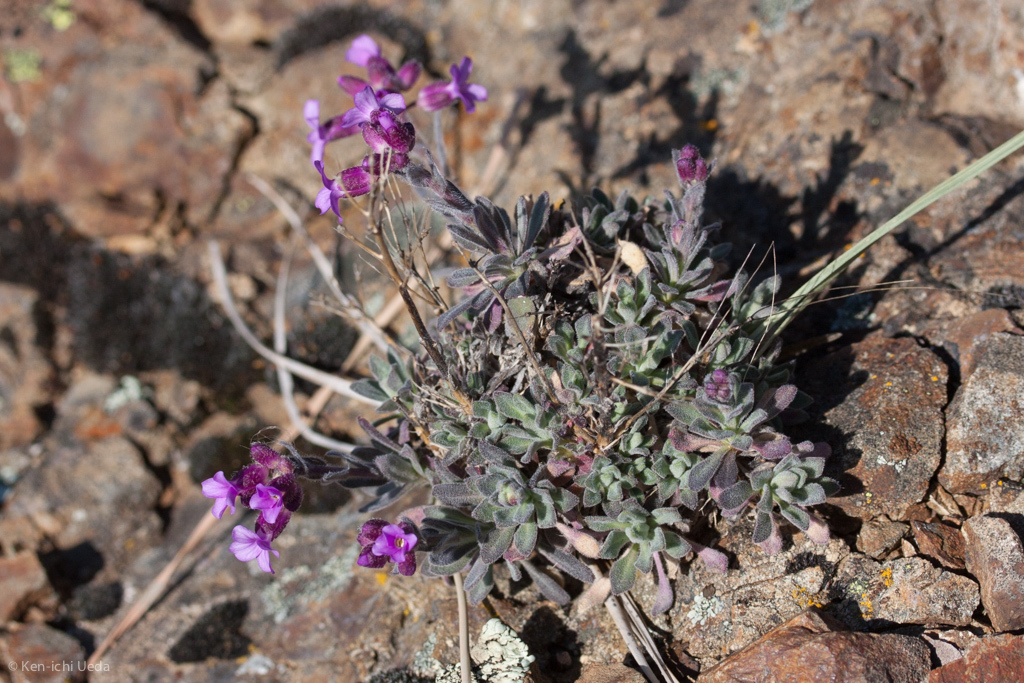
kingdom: Plantae
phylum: Tracheophyta
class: Magnoliopsida
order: Brassicales
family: Brassicaceae
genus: Boechera
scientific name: Boechera breweri
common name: Brewer's rockcress
